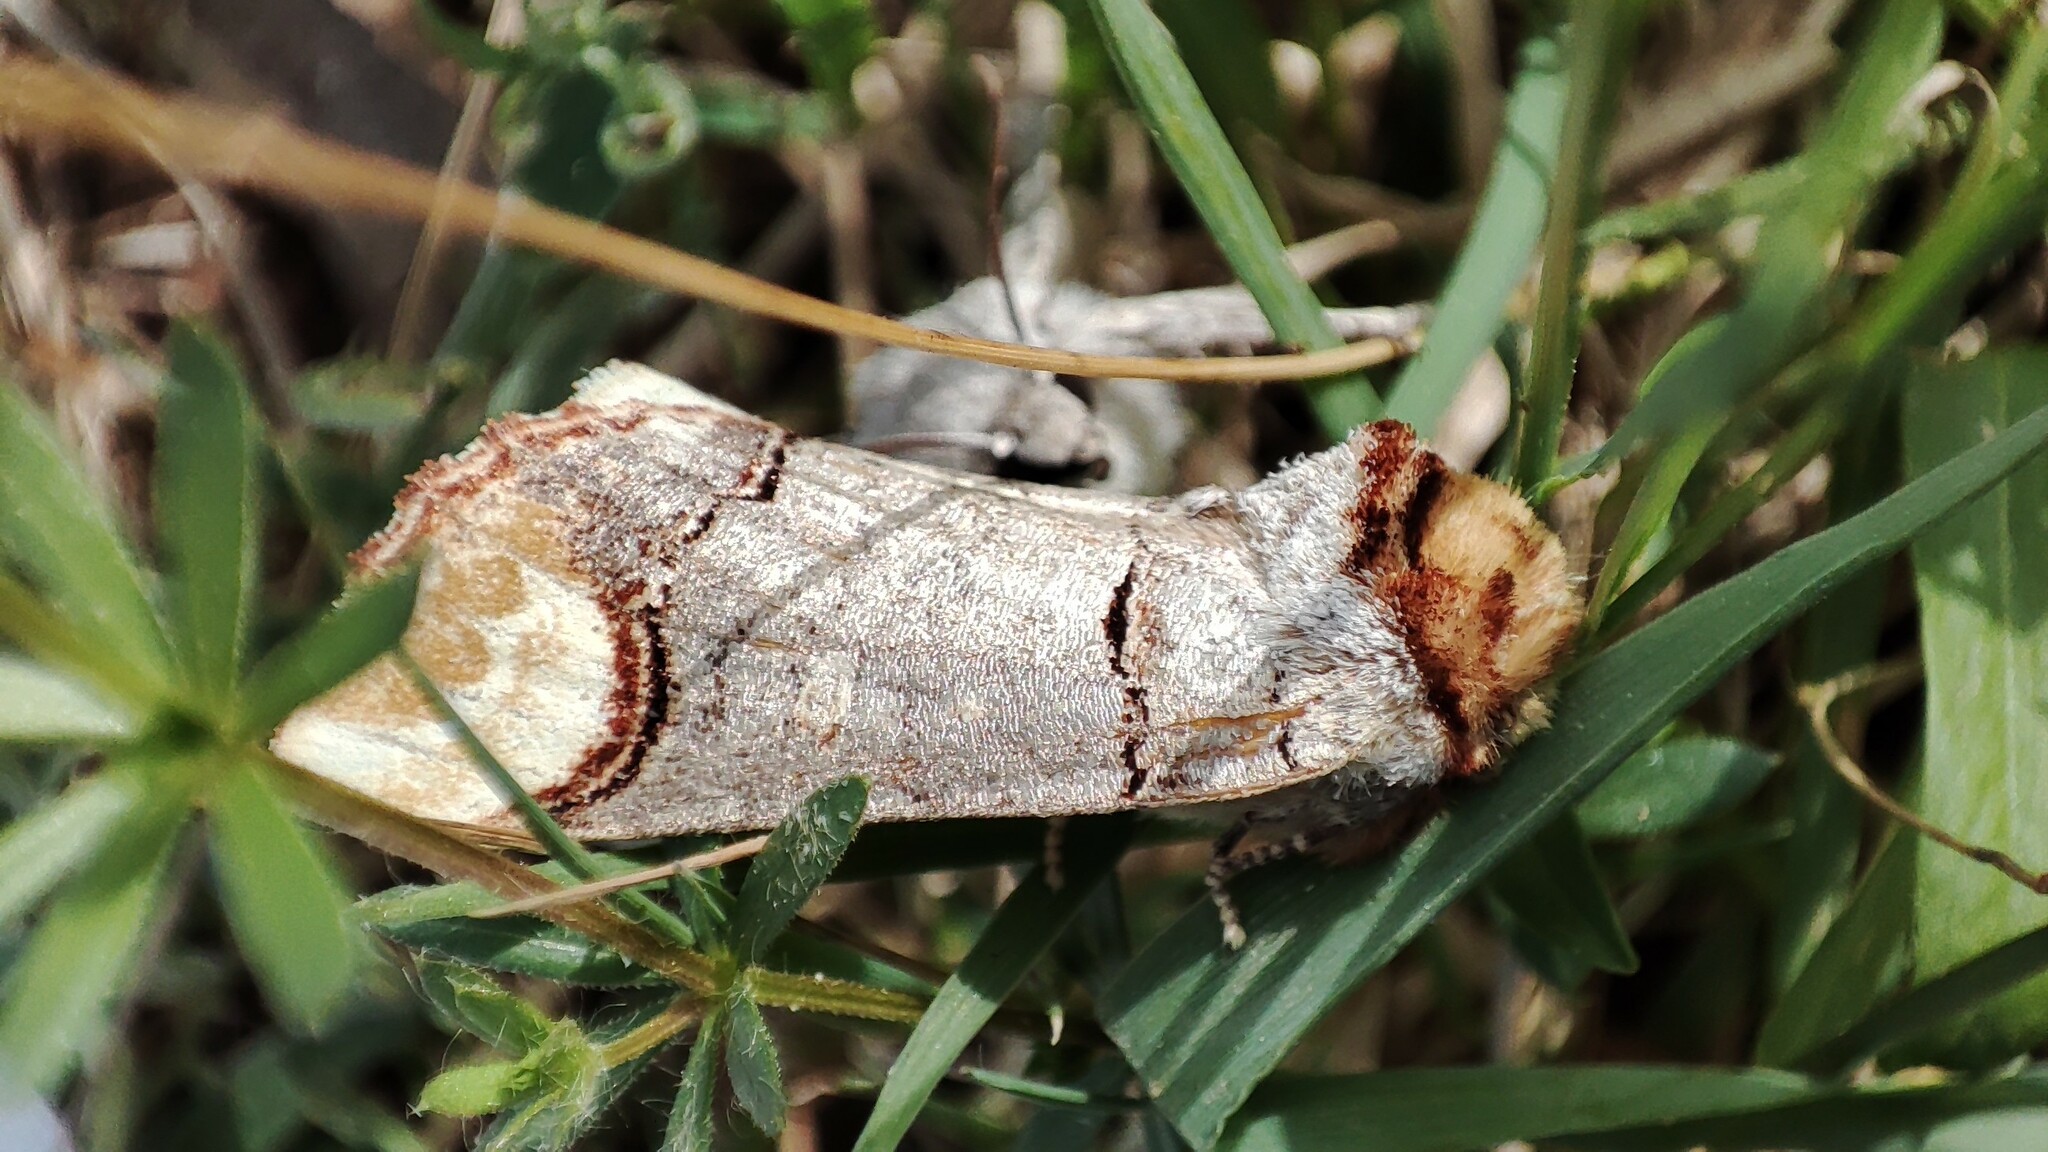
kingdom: Animalia
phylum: Arthropoda
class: Insecta
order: Lepidoptera
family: Notodontidae
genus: Phalera
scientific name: Phalera bucephala
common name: Buff-tip
